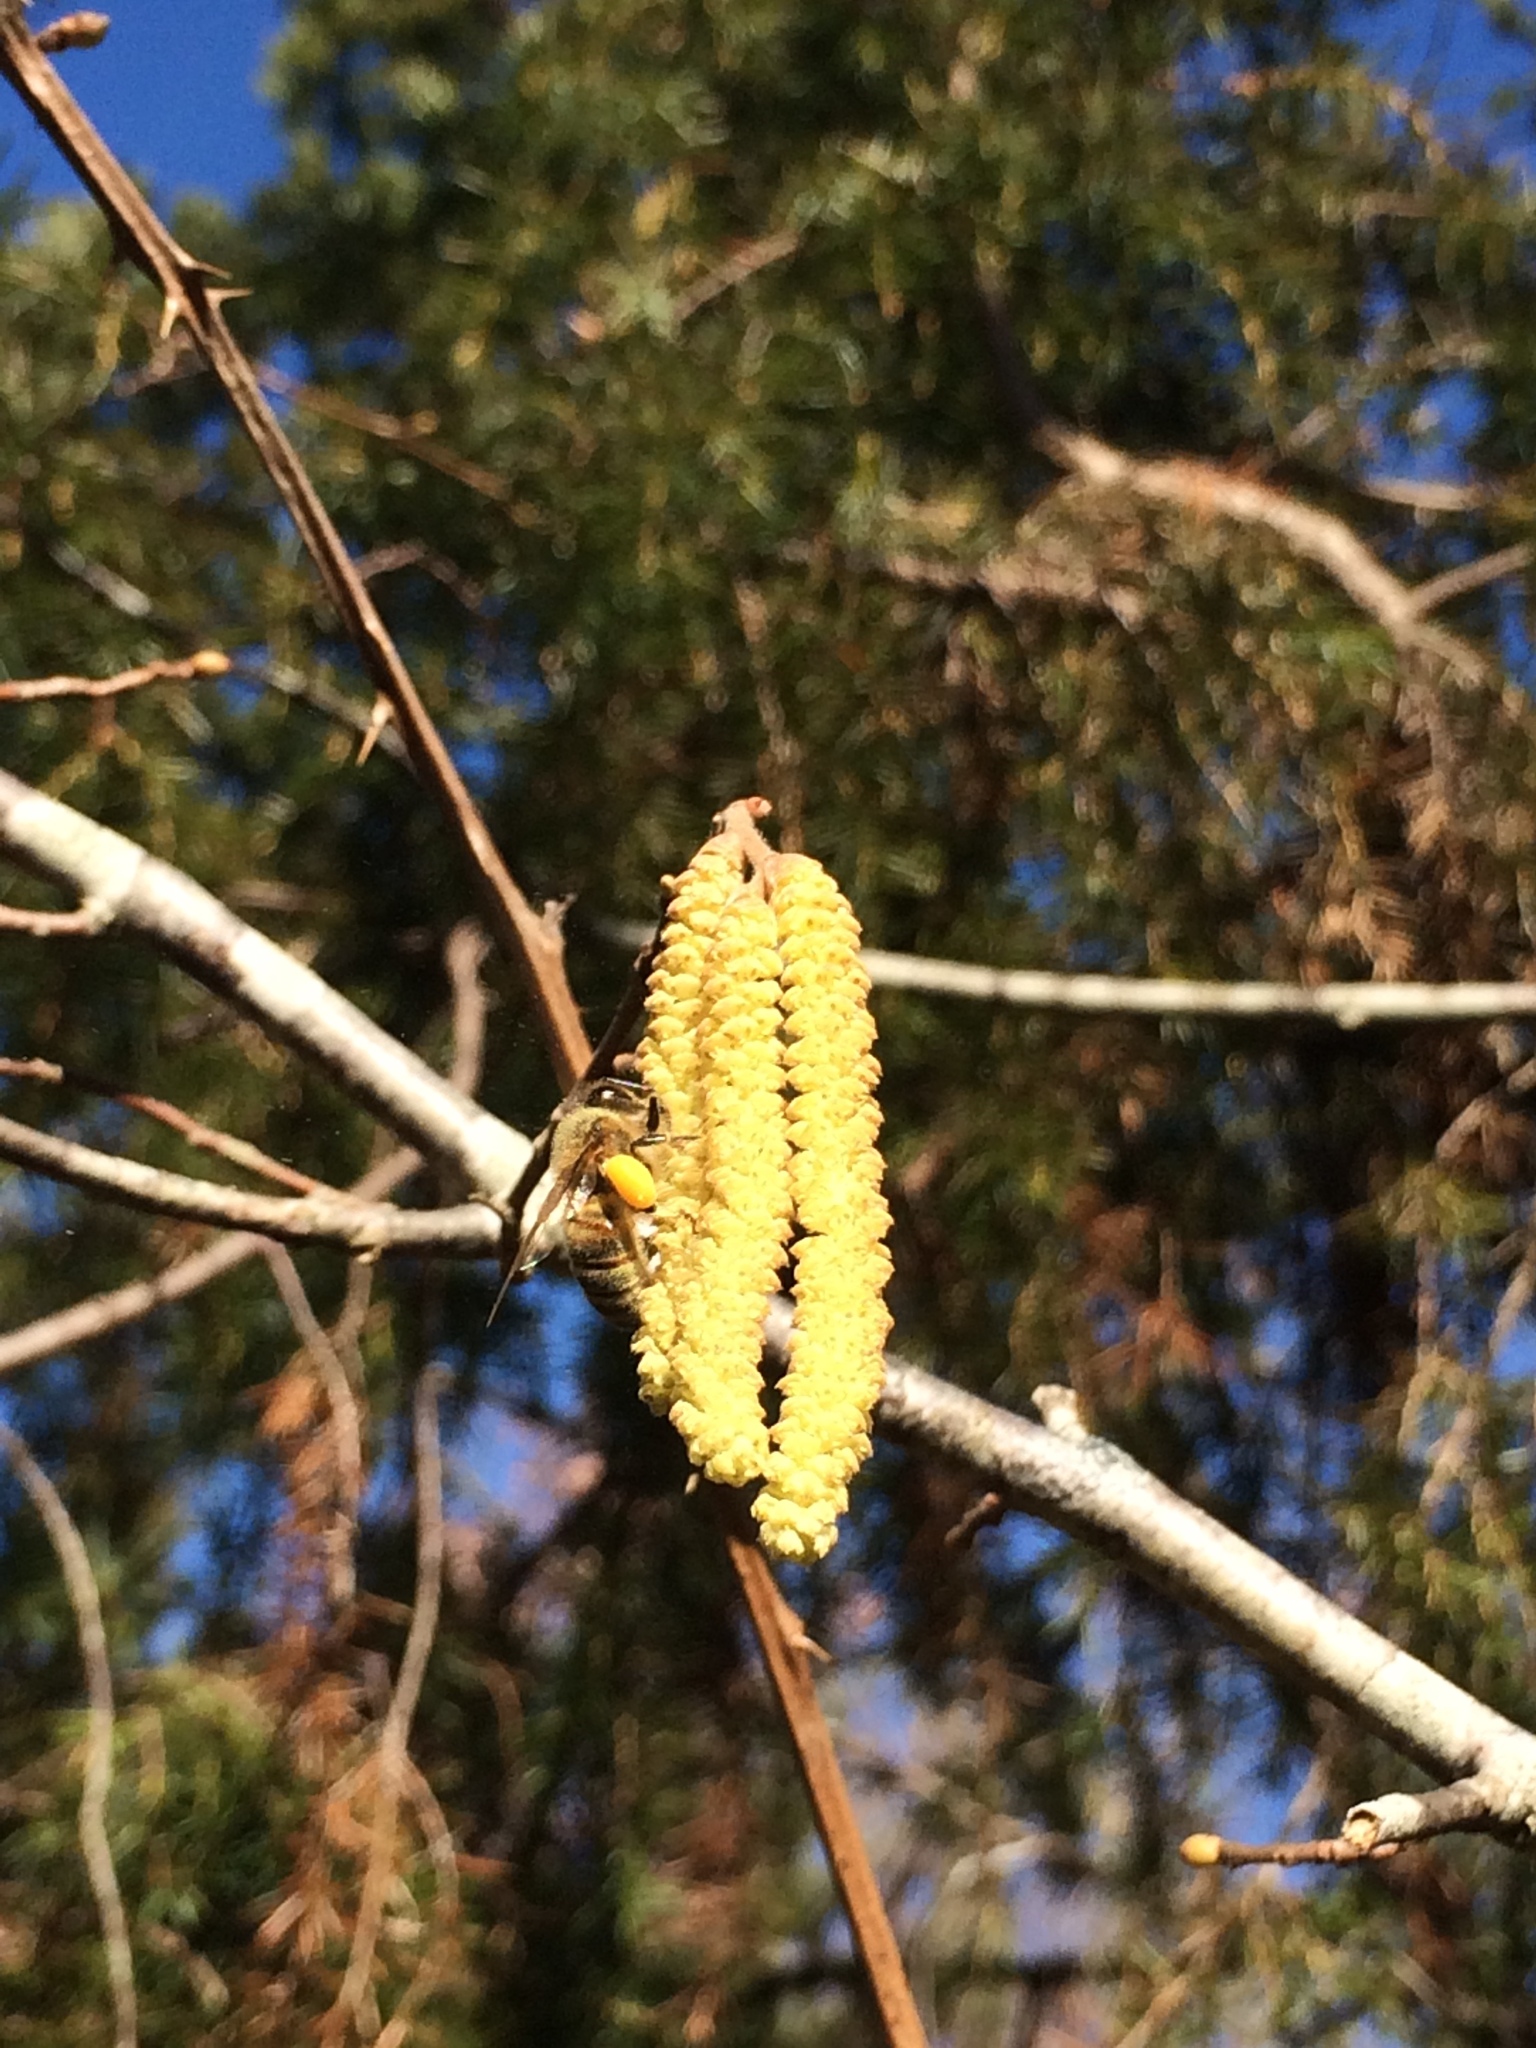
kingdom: Animalia
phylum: Arthropoda
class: Insecta
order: Hymenoptera
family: Apidae
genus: Apis
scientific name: Apis mellifera
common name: Honey bee
